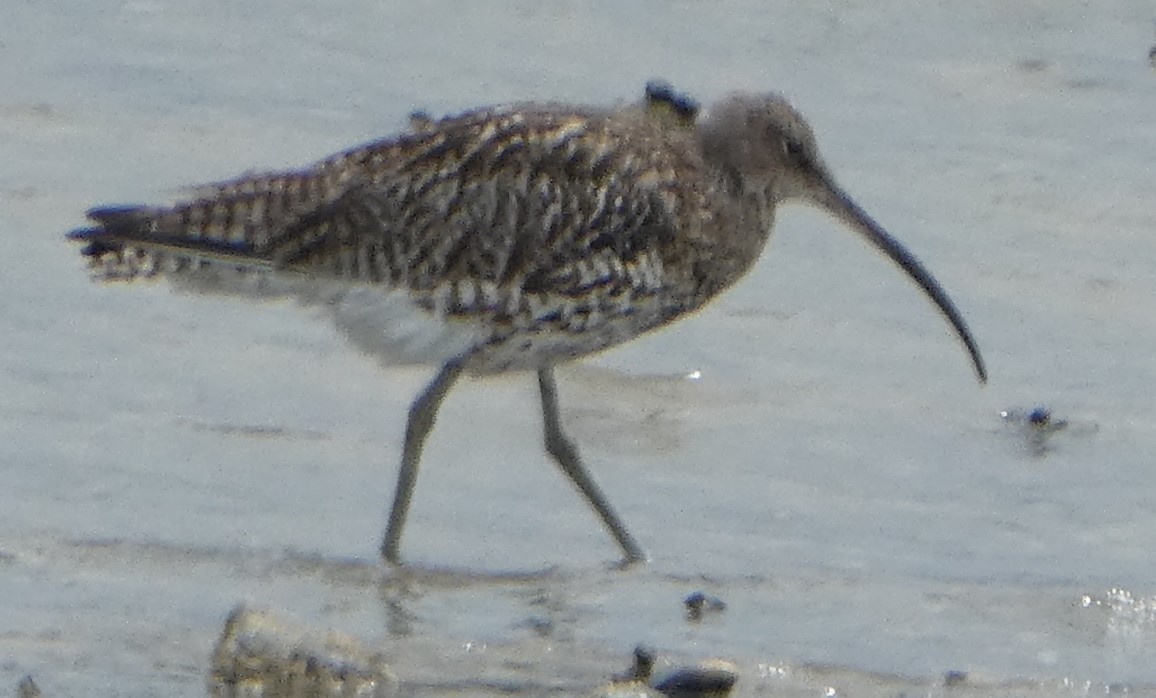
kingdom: Animalia
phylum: Chordata
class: Aves
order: Charadriiformes
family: Scolopacidae
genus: Numenius
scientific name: Numenius arquata
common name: Eurasian curlew
